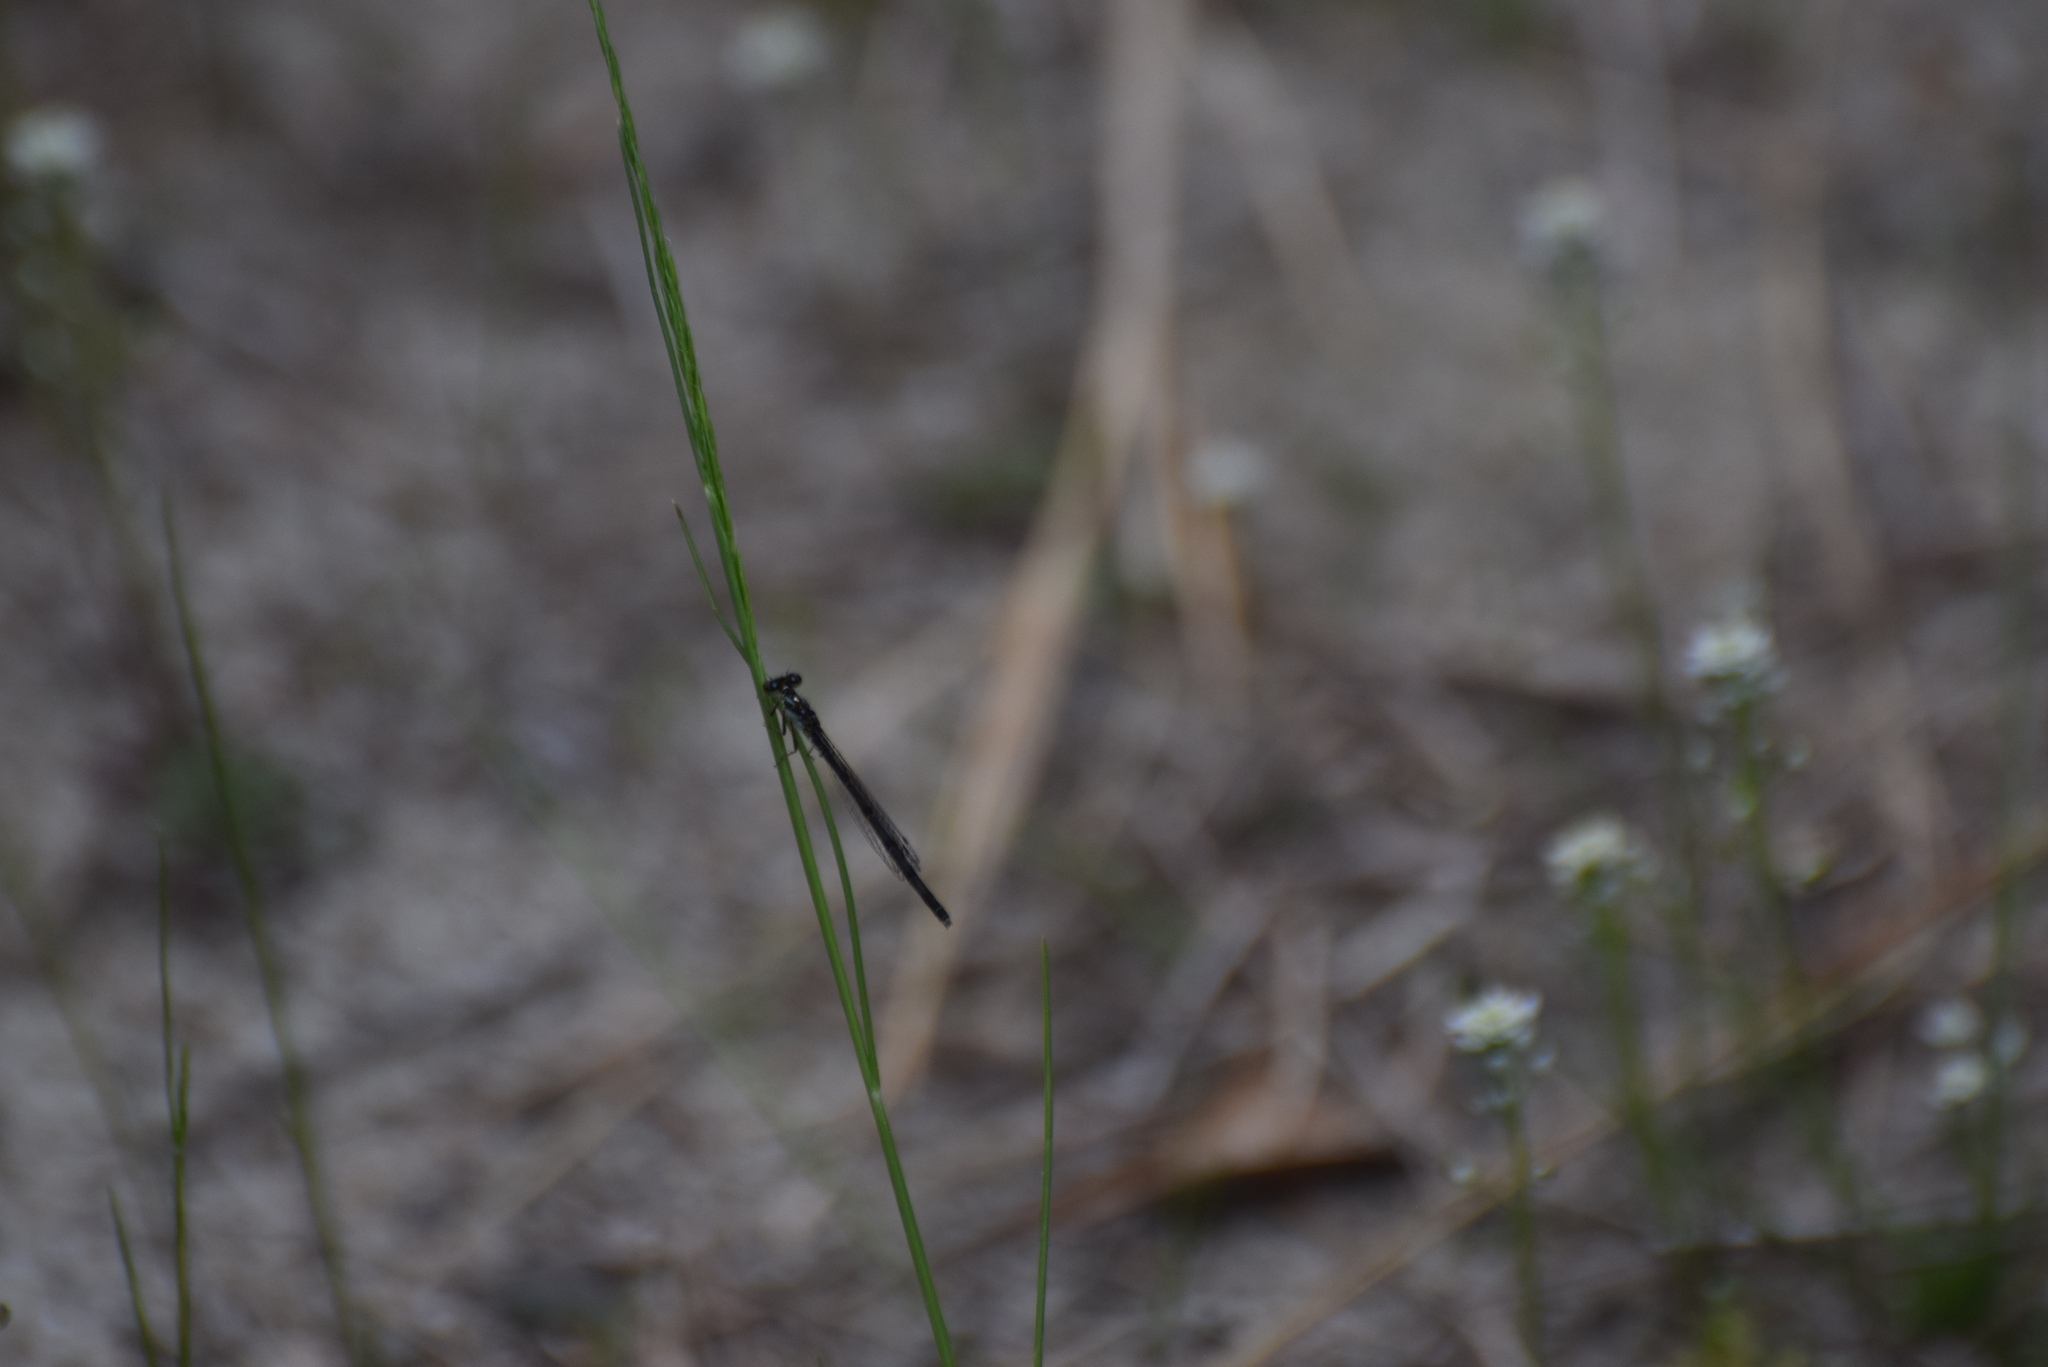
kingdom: Animalia
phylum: Arthropoda
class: Insecta
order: Odonata
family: Coenagrionidae
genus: Ischnura
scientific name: Ischnura posita
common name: Fragile forktail
